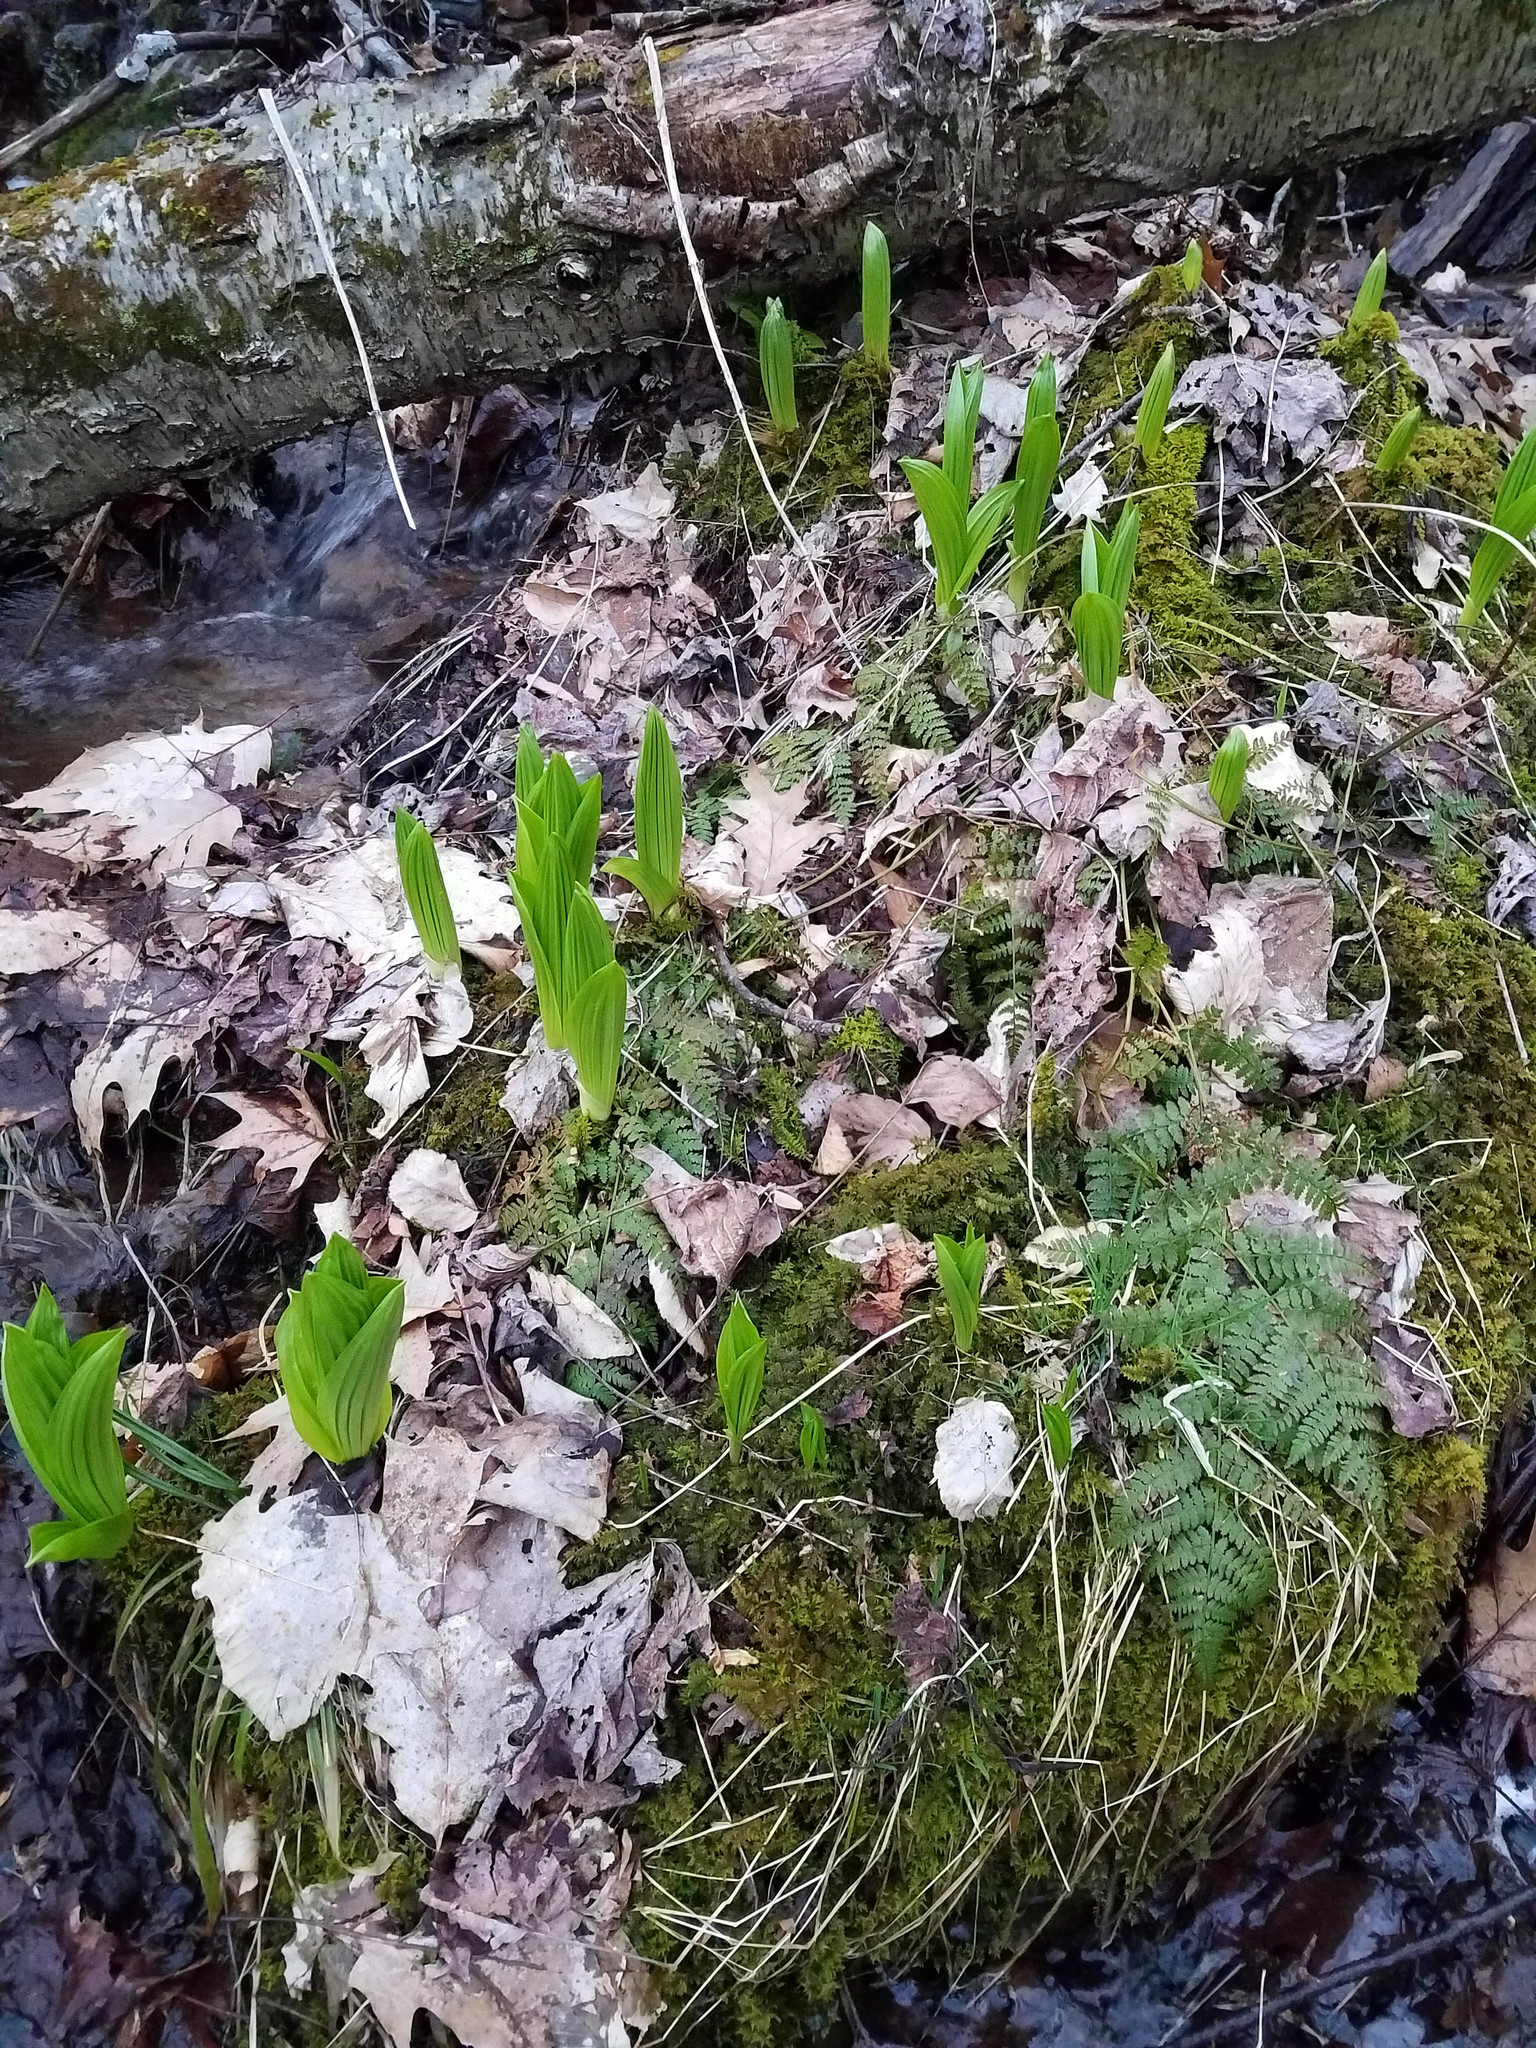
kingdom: Plantae
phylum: Tracheophyta
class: Liliopsida
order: Liliales
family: Melanthiaceae
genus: Veratrum
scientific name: Veratrum viride
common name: American false hellebore
